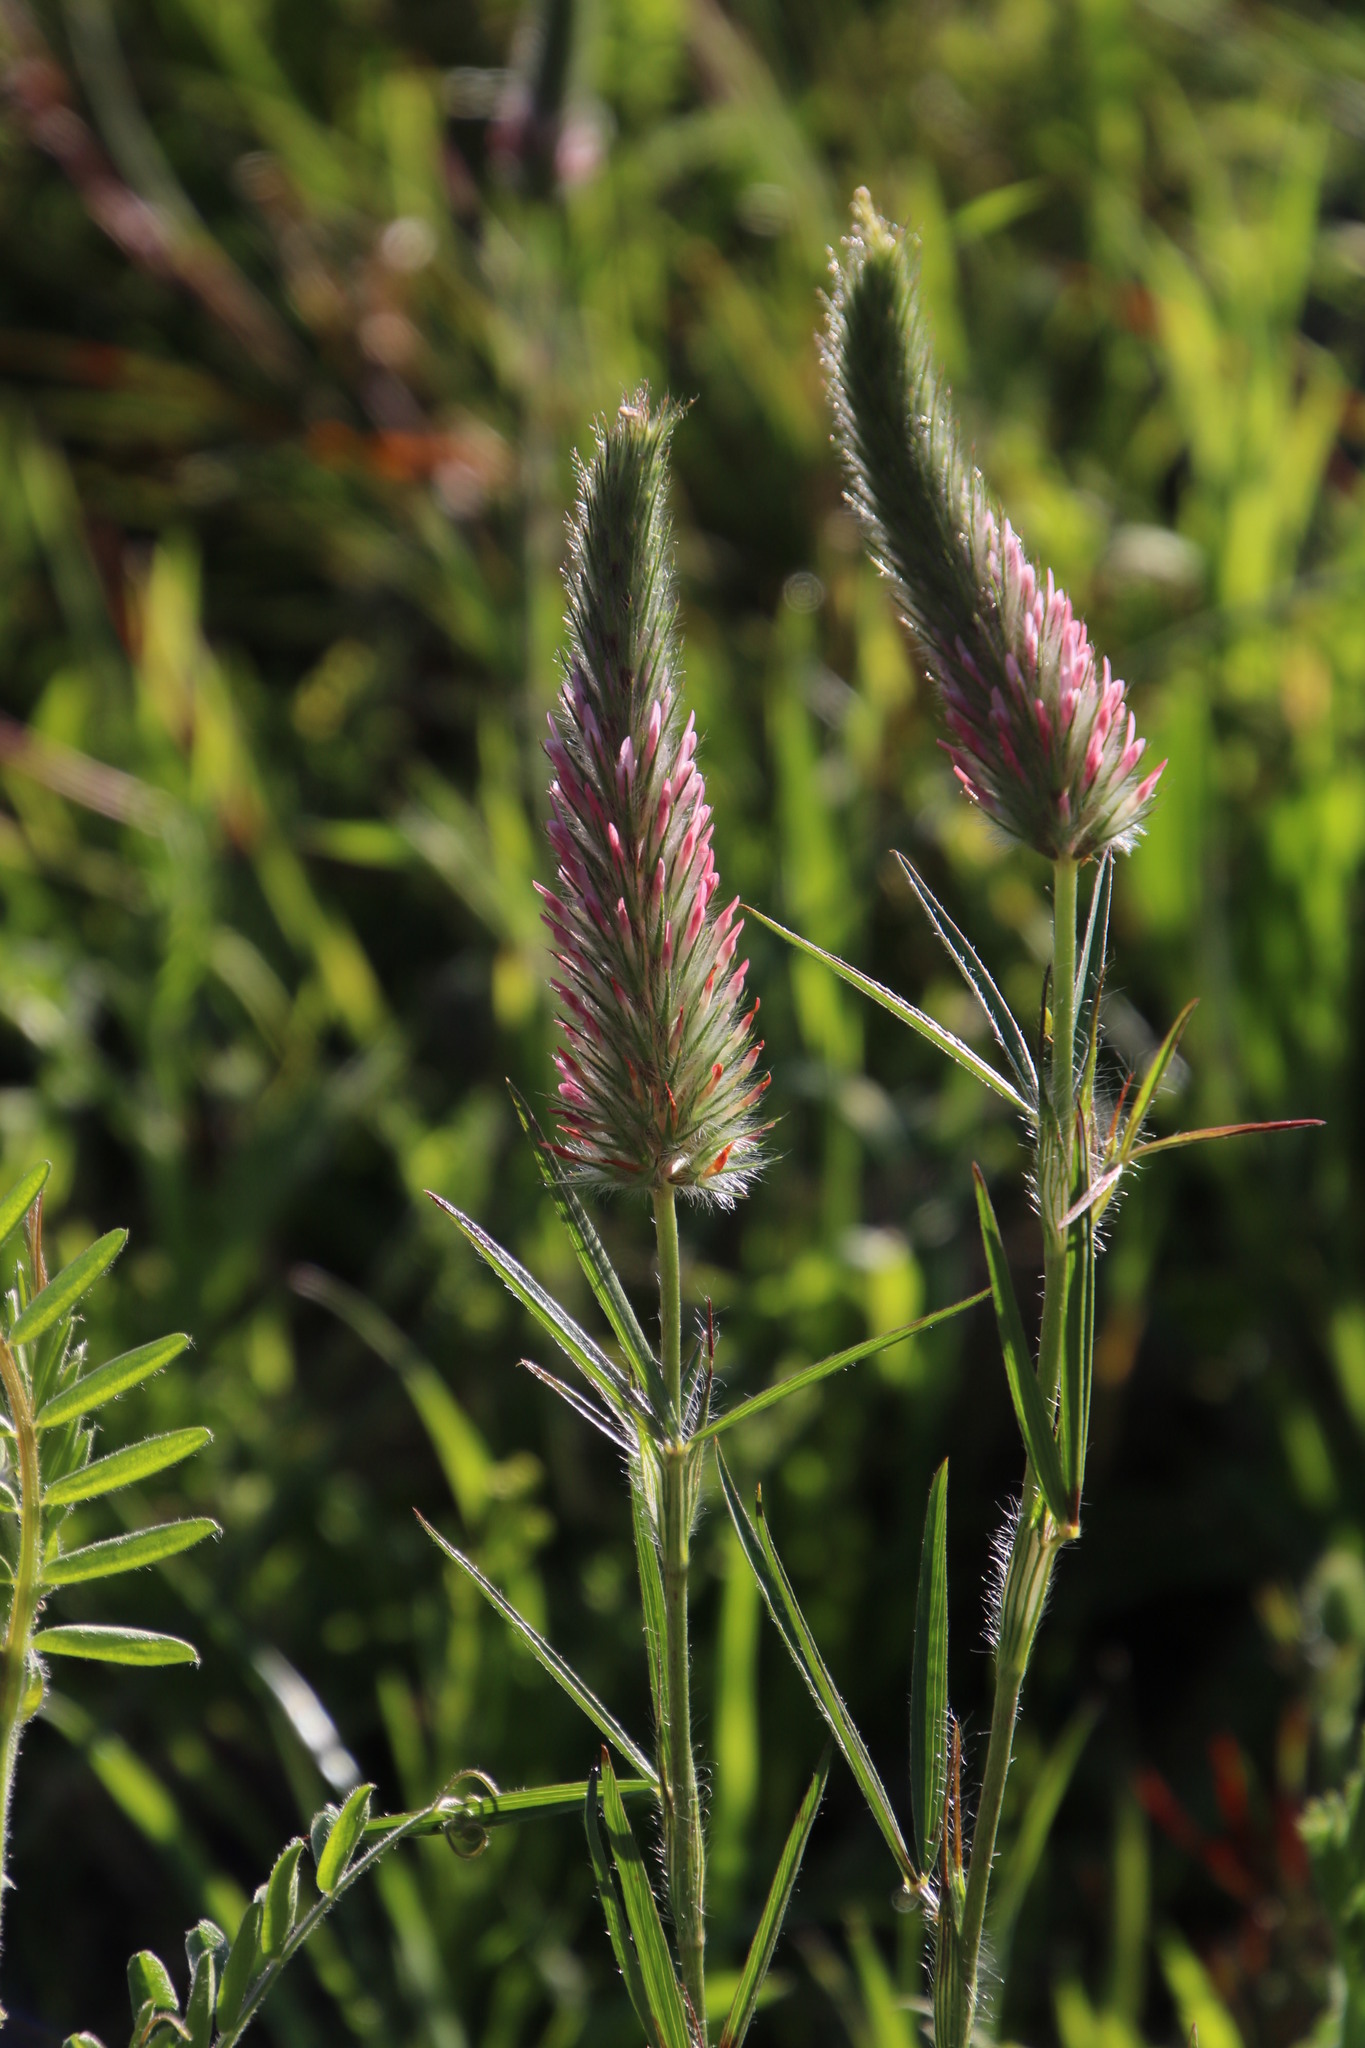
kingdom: Plantae
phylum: Tracheophyta
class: Magnoliopsida
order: Fabales
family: Fabaceae
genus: Trifolium
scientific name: Trifolium angustifolium
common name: Narrow clover
